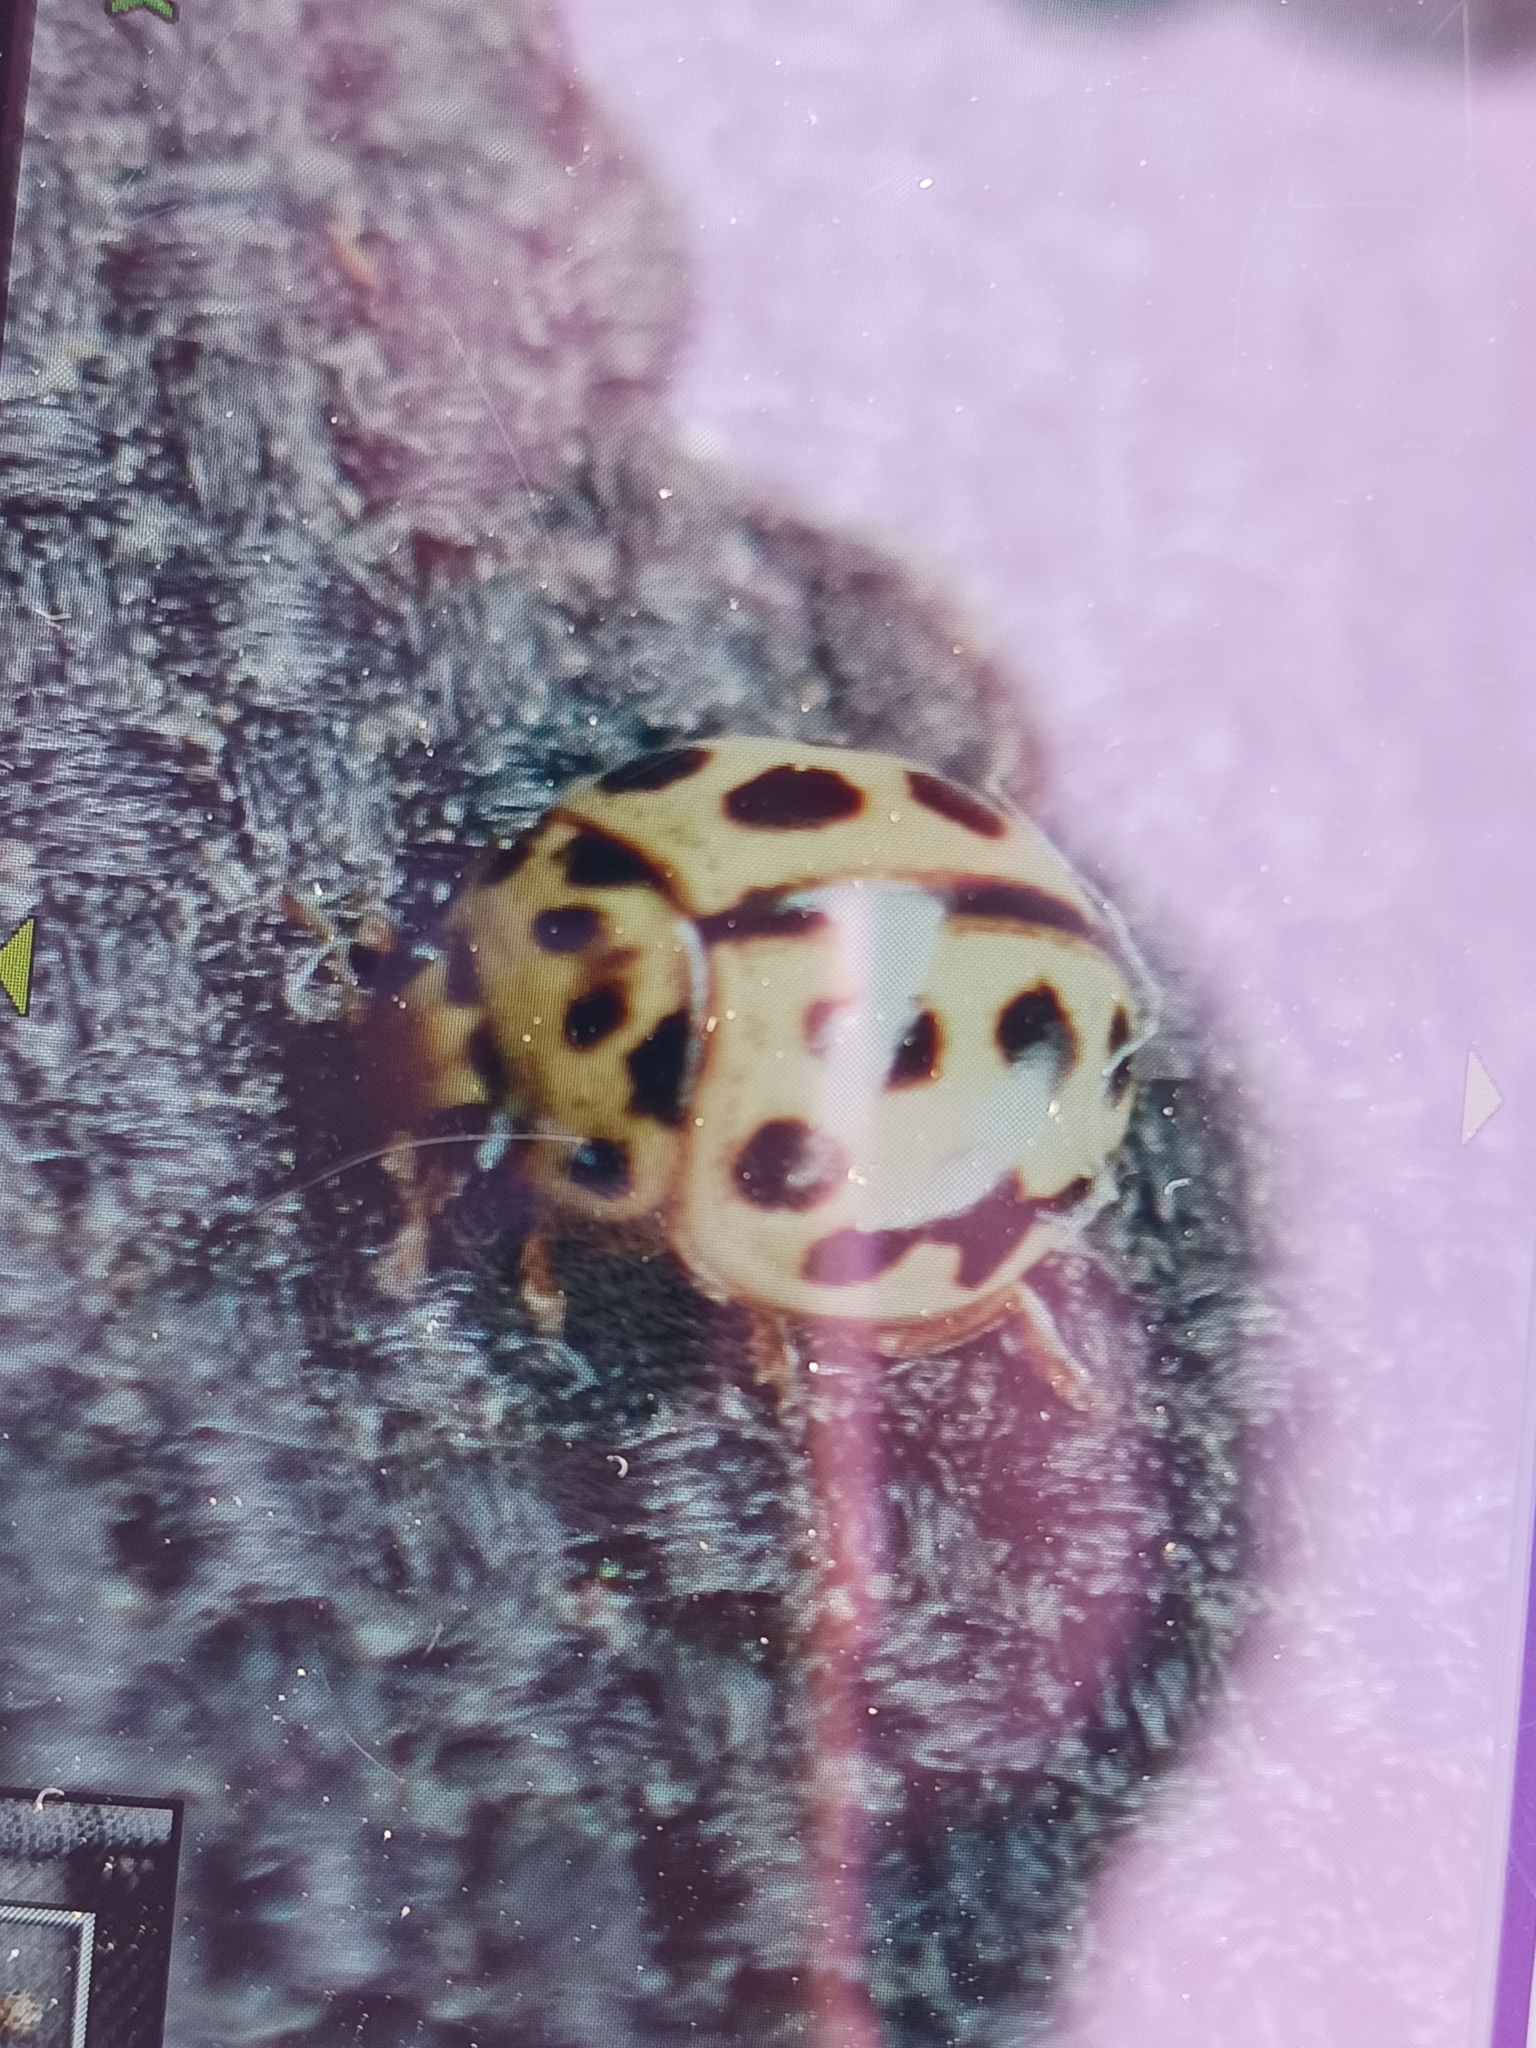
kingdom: Animalia
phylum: Arthropoda
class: Insecta
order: Coleoptera
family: Coccinellidae
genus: Tytthaspis
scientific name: Tytthaspis sedecimpunctata
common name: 16-spot ladybird
